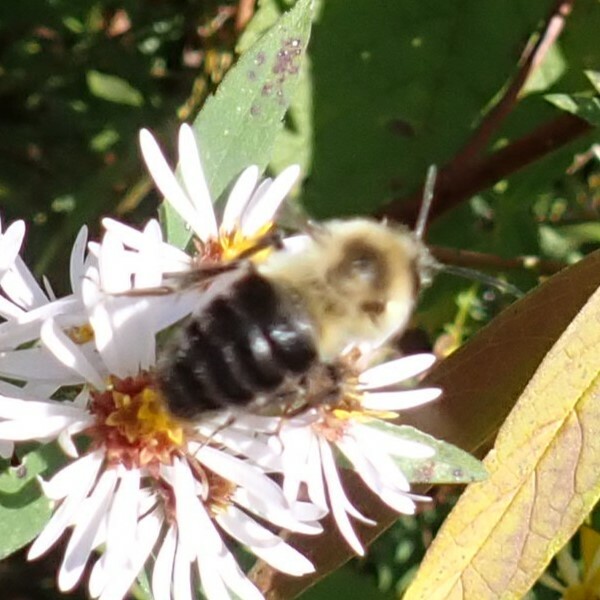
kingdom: Animalia
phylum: Arthropoda
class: Insecta
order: Hymenoptera
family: Apidae
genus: Bombus
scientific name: Bombus impatiens
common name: Common eastern bumble bee
